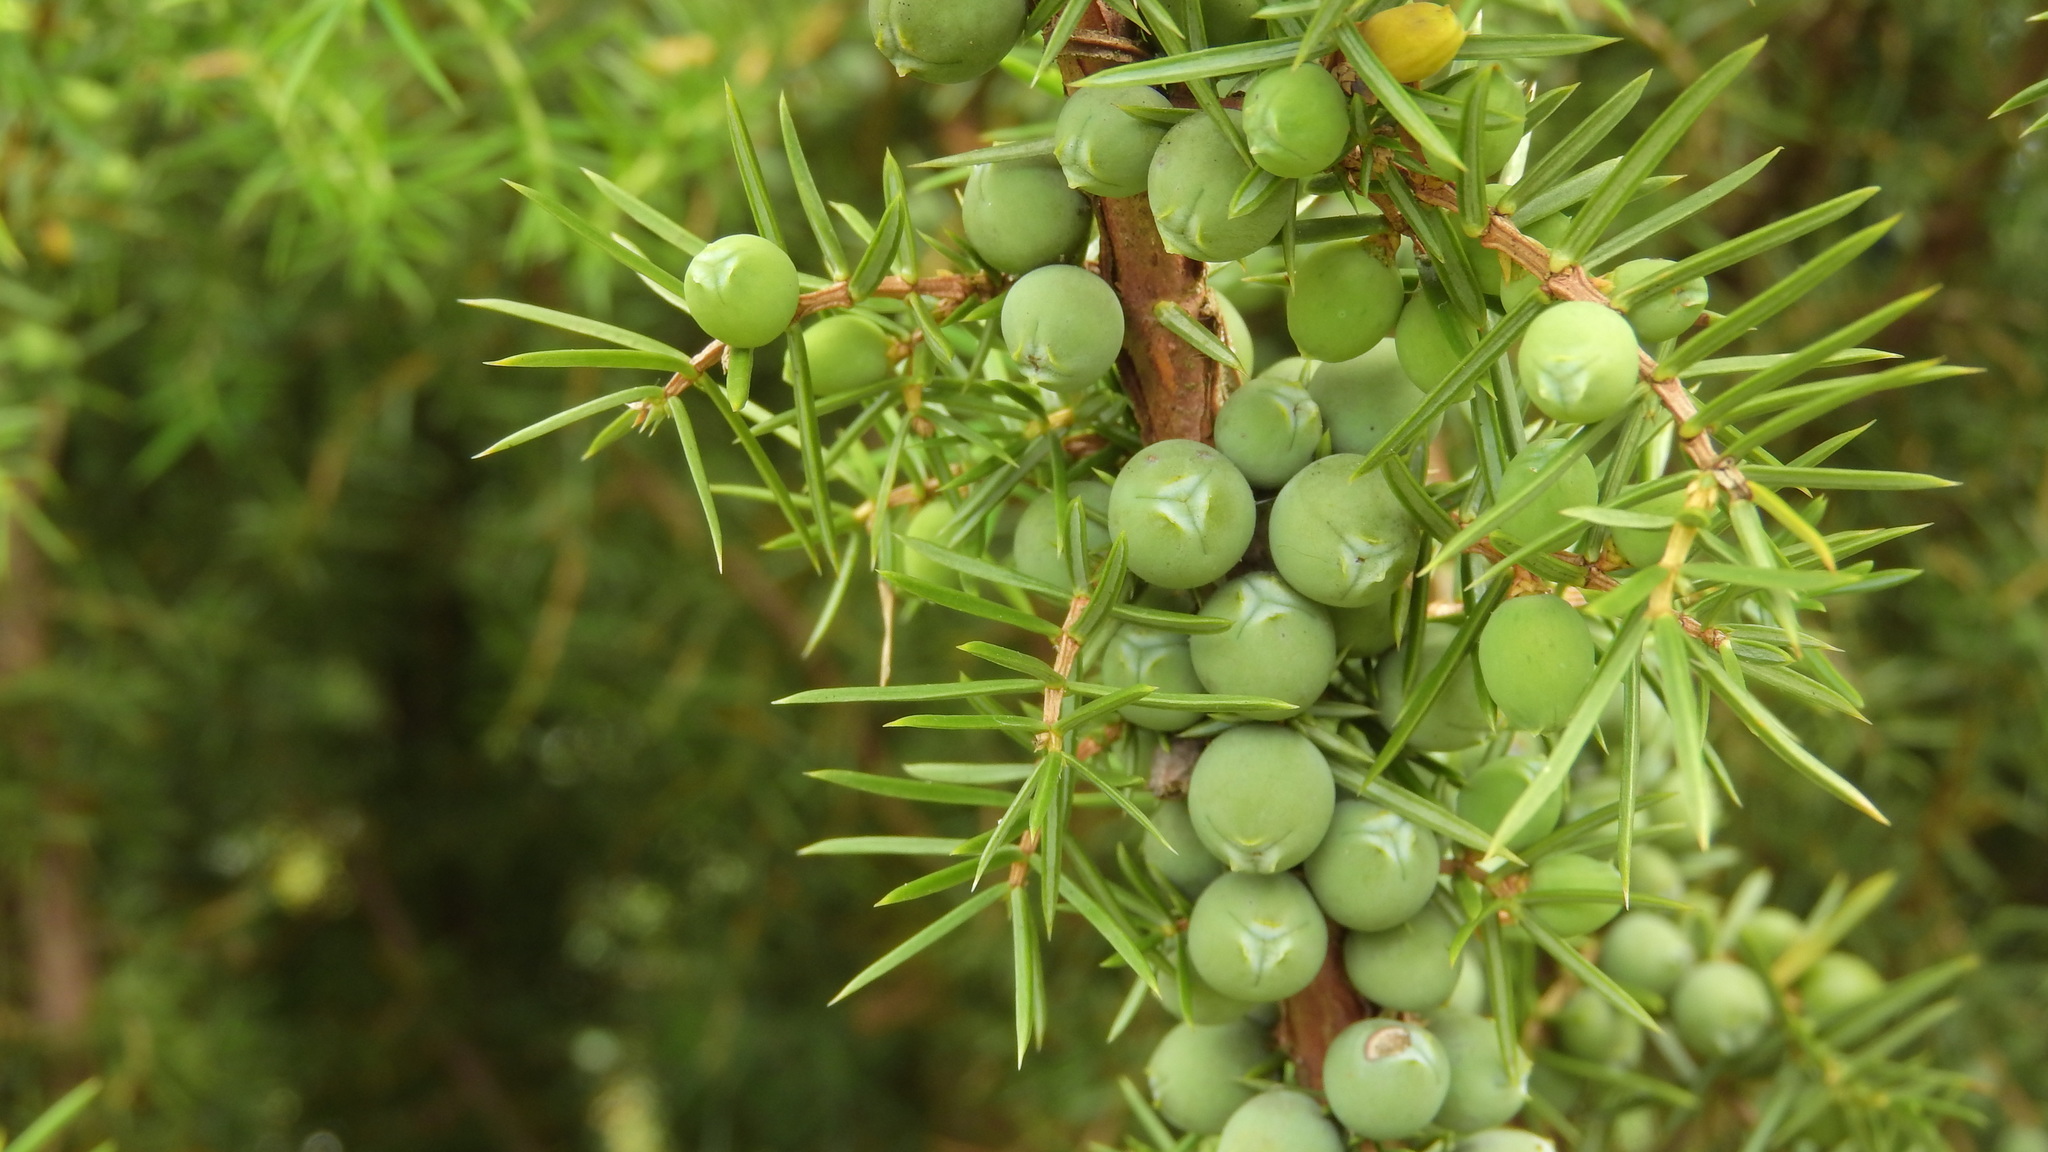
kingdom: Plantae
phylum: Tracheophyta
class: Pinopsida
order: Pinales
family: Cupressaceae
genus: Juniperus
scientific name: Juniperus communis
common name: Common juniper
